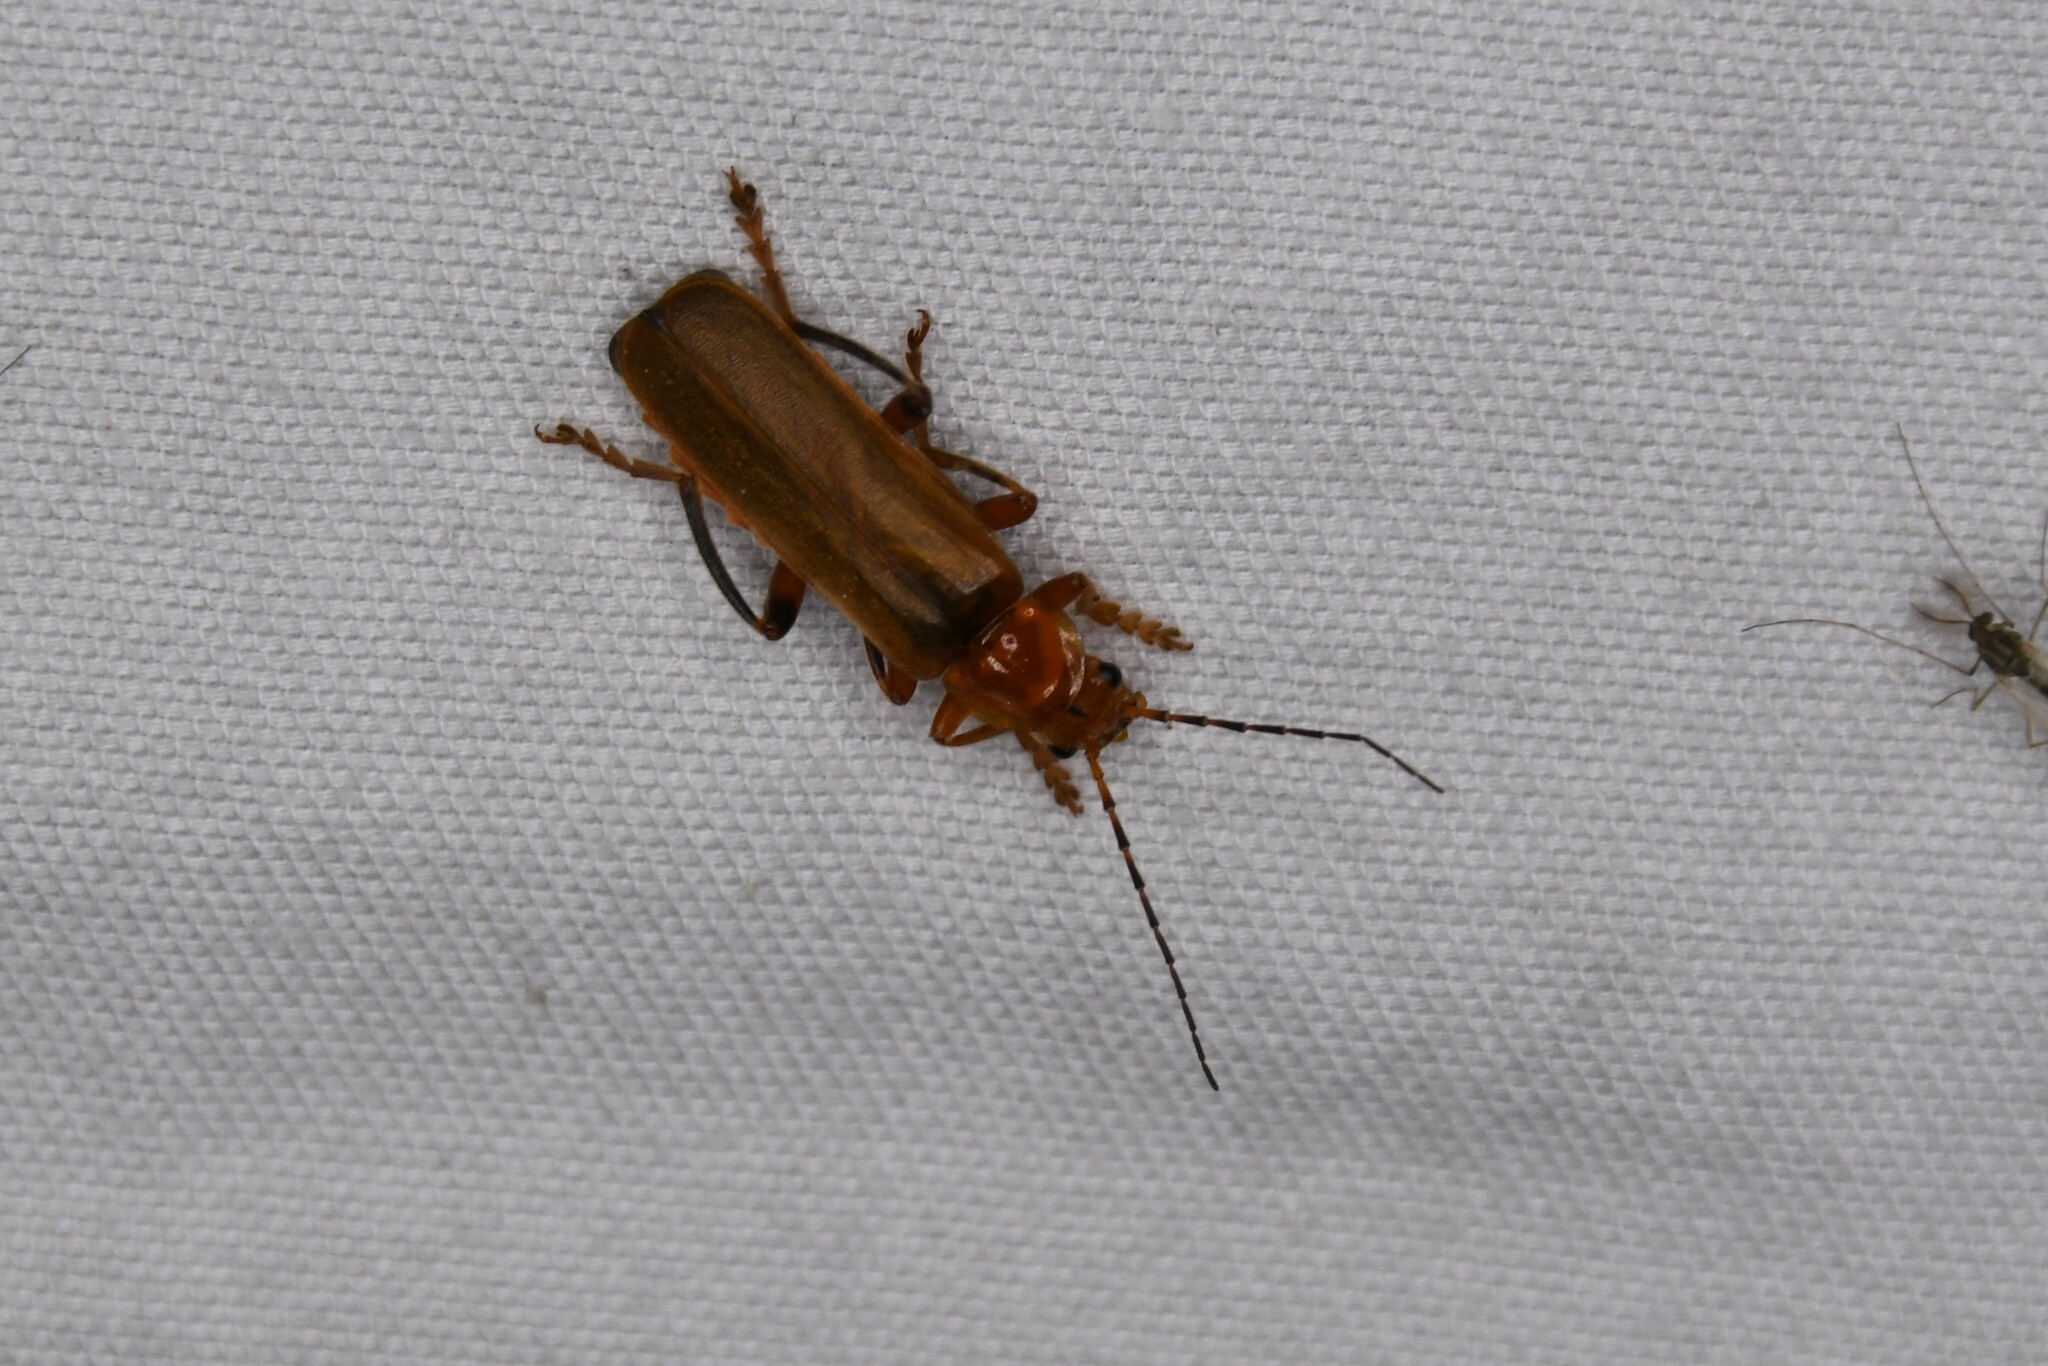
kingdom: Animalia
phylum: Arthropoda
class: Insecta
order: Coleoptera
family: Cantharidae
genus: Cantharis
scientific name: Cantharis livida
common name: Livid soldier beetle
